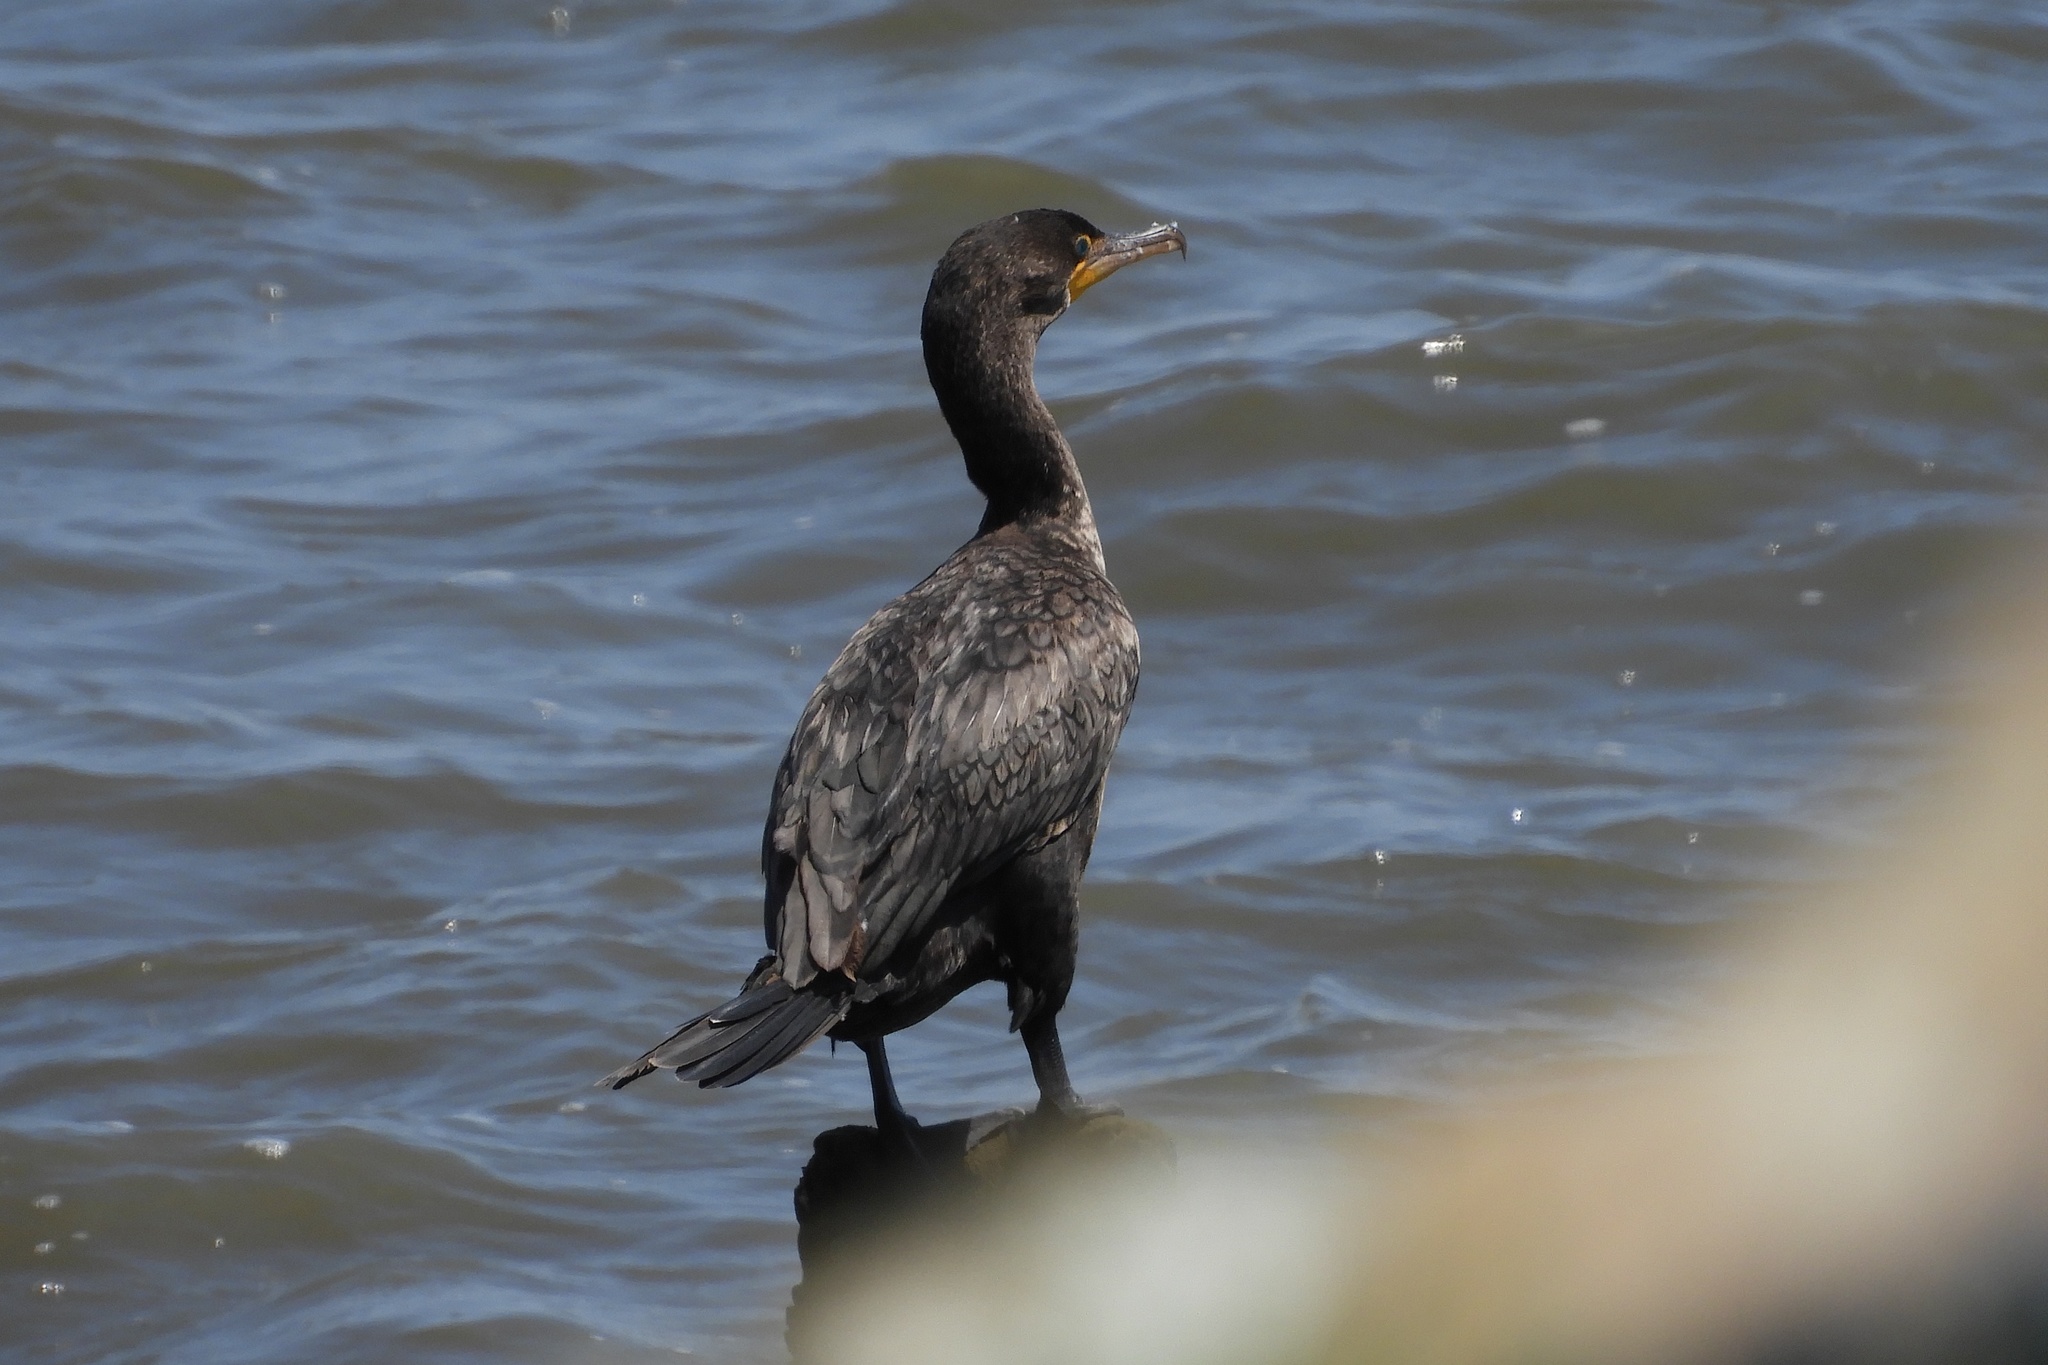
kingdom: Animalia
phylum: Chordata
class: Aves
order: Suliformes
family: Phalacrocoracidae
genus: Phalacrocorax
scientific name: Phalacrocorax auritus
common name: Double-crested cormorant
